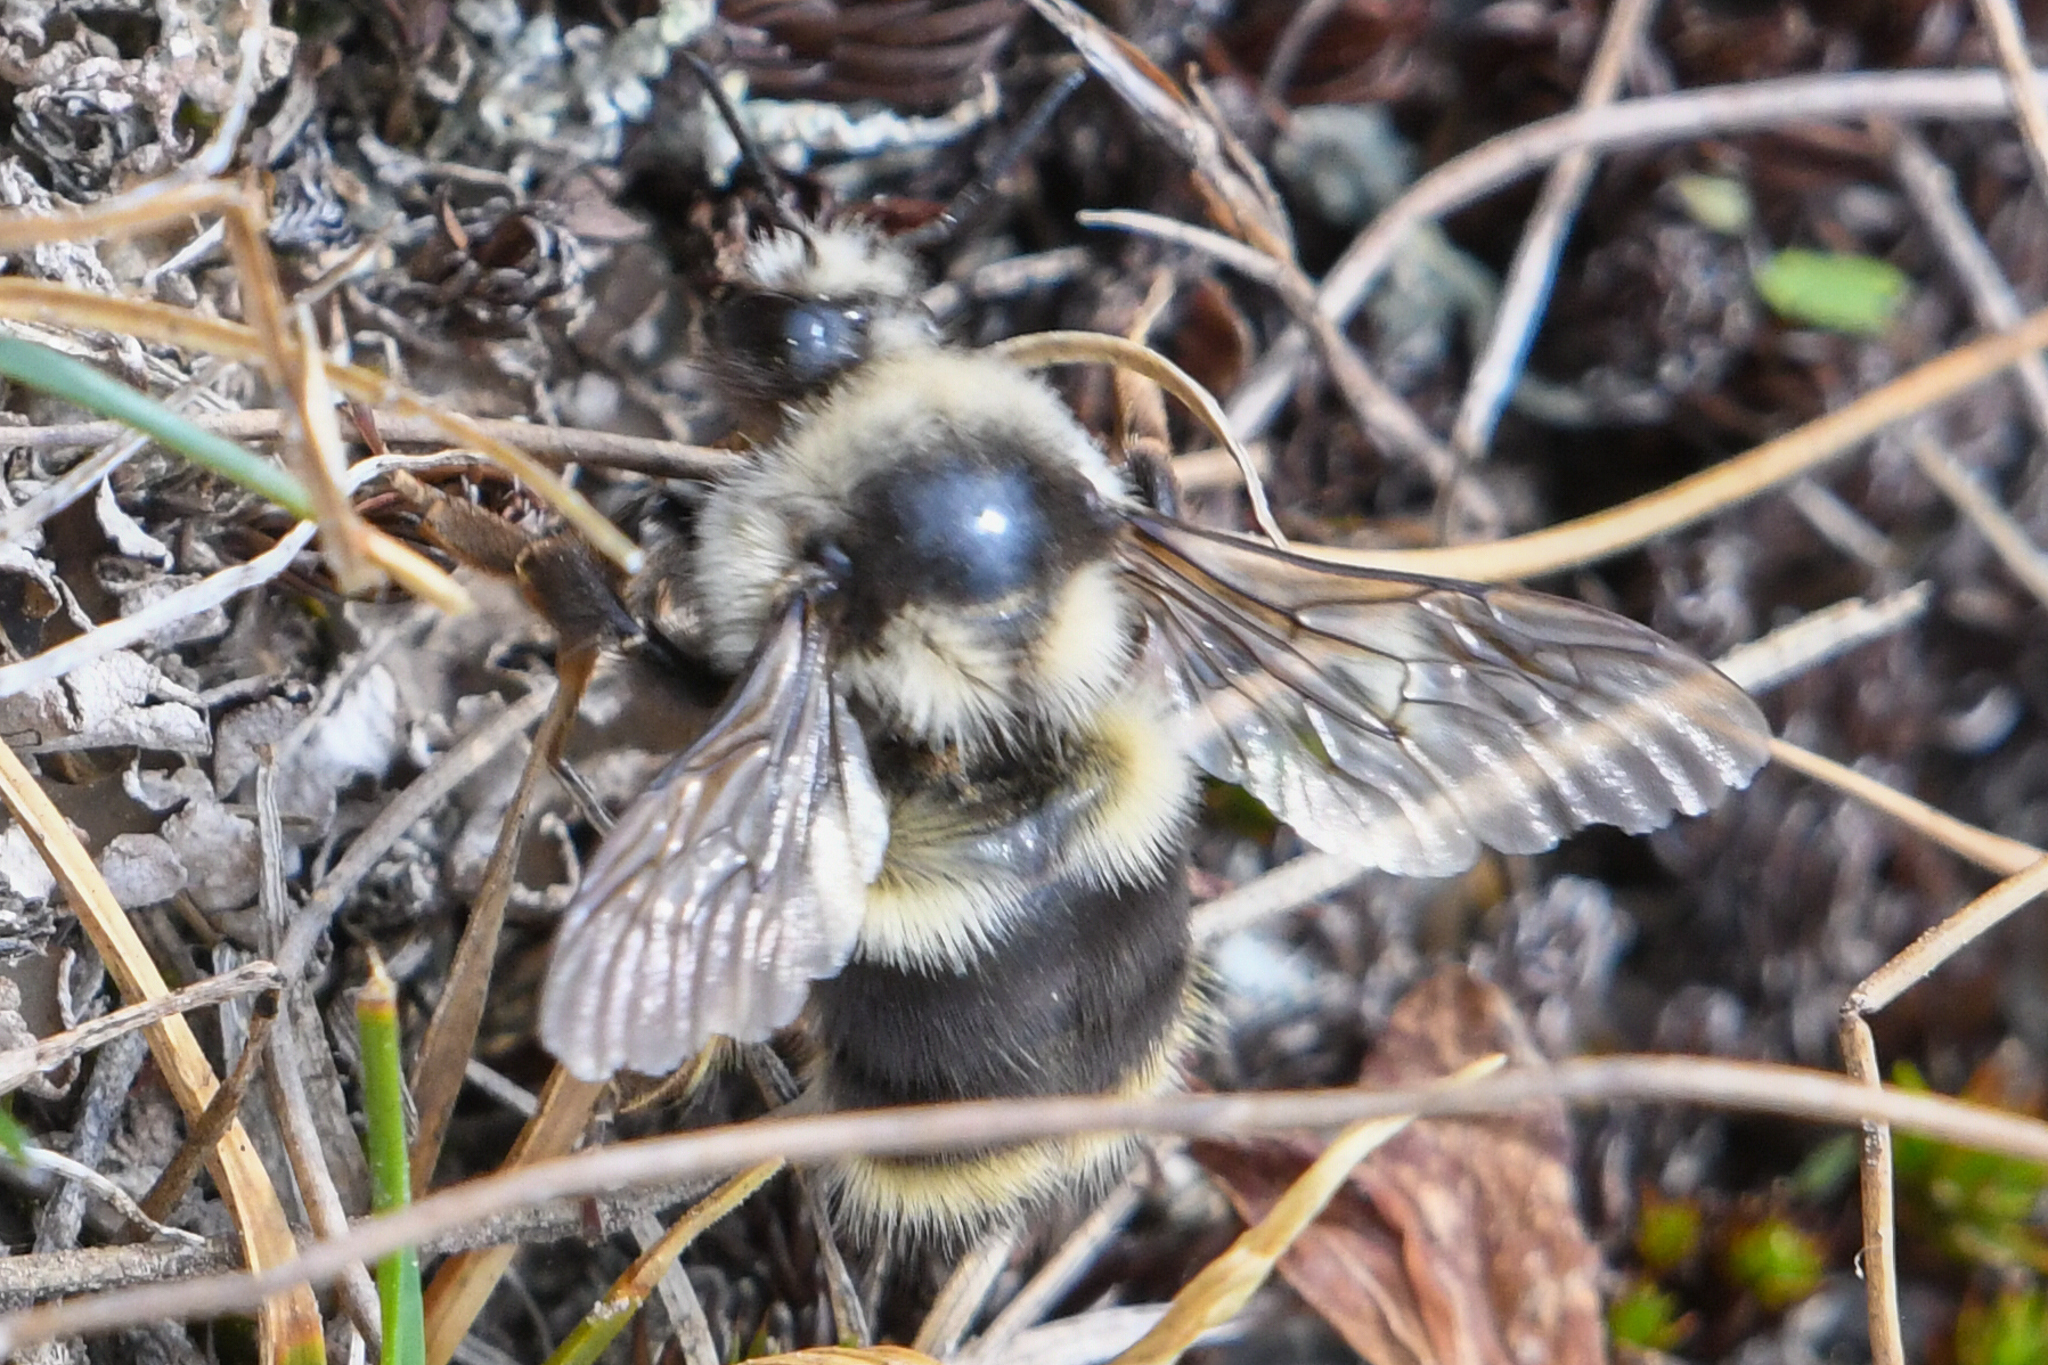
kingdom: Animalia
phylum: Arthropoda
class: Insecta
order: Hymenoptera
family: Apidae
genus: Bombus
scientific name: Bombus vancouverensis
